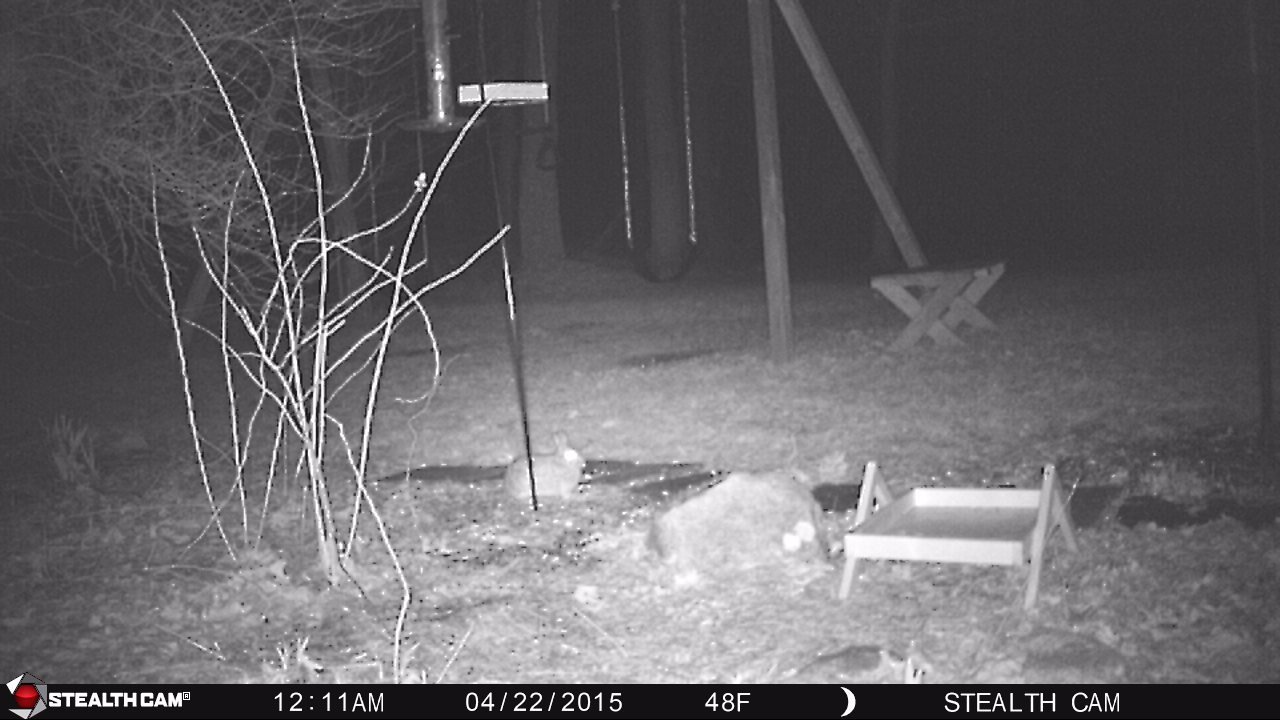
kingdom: Animalia
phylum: Chordata
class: Mammalia
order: Lagomorpha
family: Leporidae
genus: Sylvilagus
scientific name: Sylvilagus floridanus
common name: Eastern cottontail
